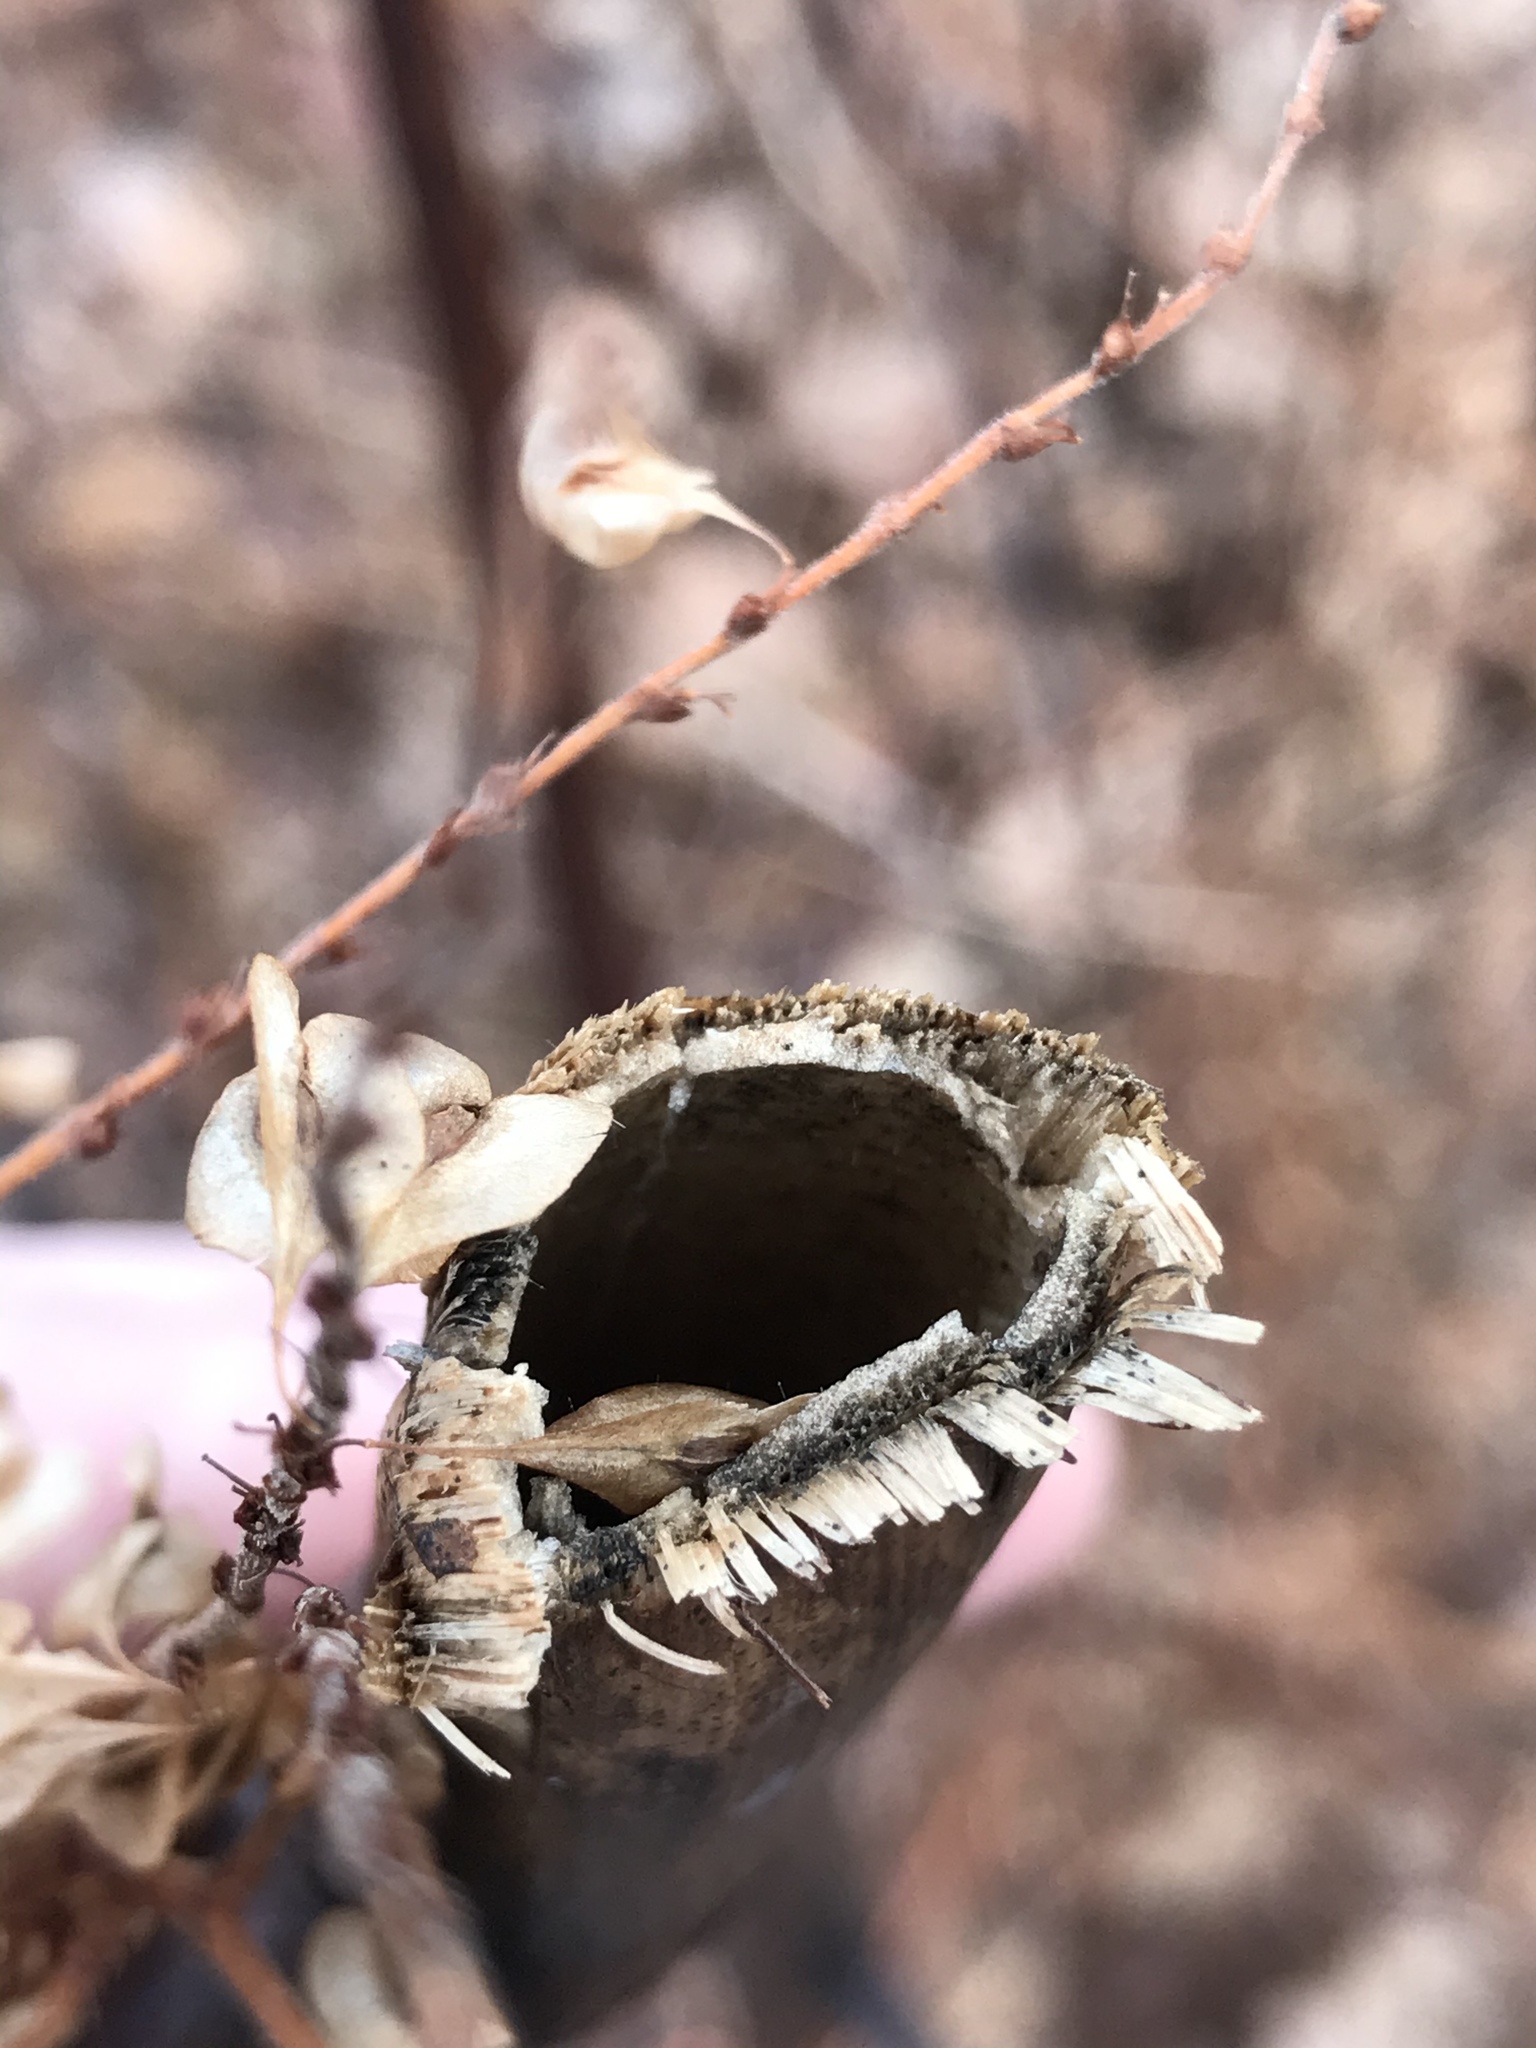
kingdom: Plantae
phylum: Tracheophyta
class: Magnoliopsida
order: Caryophyllales
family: Polygonaceae
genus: Reynoutria
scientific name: Reynoutria japonica
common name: Japanese knotweed
